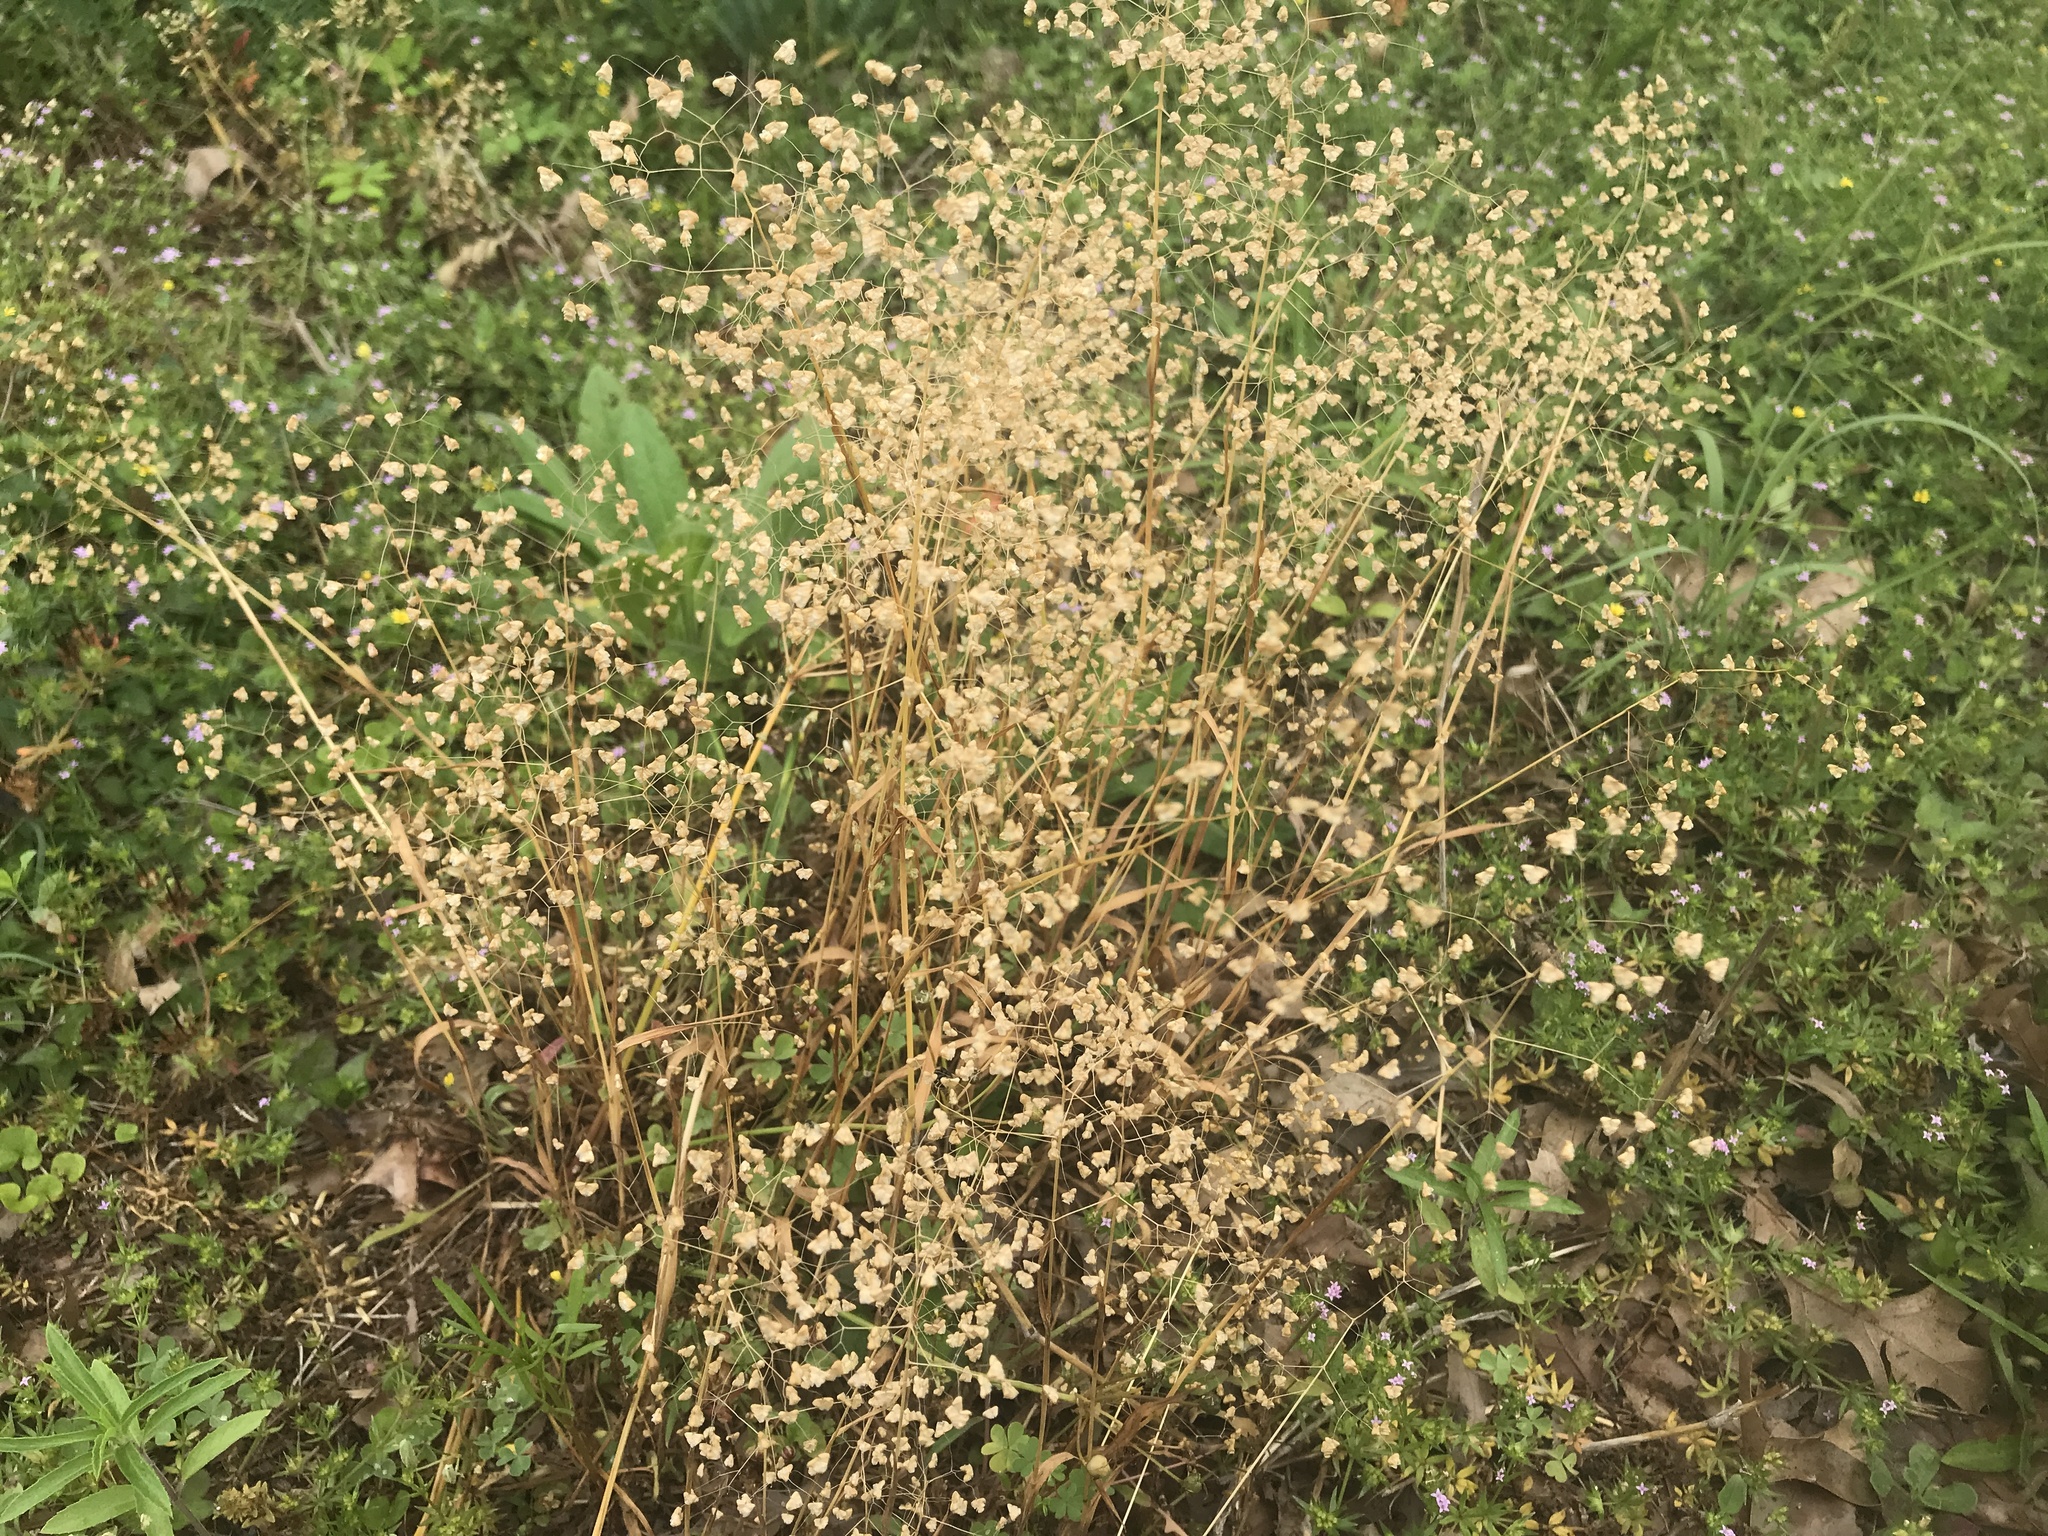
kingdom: Plantae
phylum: Tracheophyta
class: Liliopsida
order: Poales
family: Poaceae
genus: Briza
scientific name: Briza minor
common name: Lesser quaking-grass
